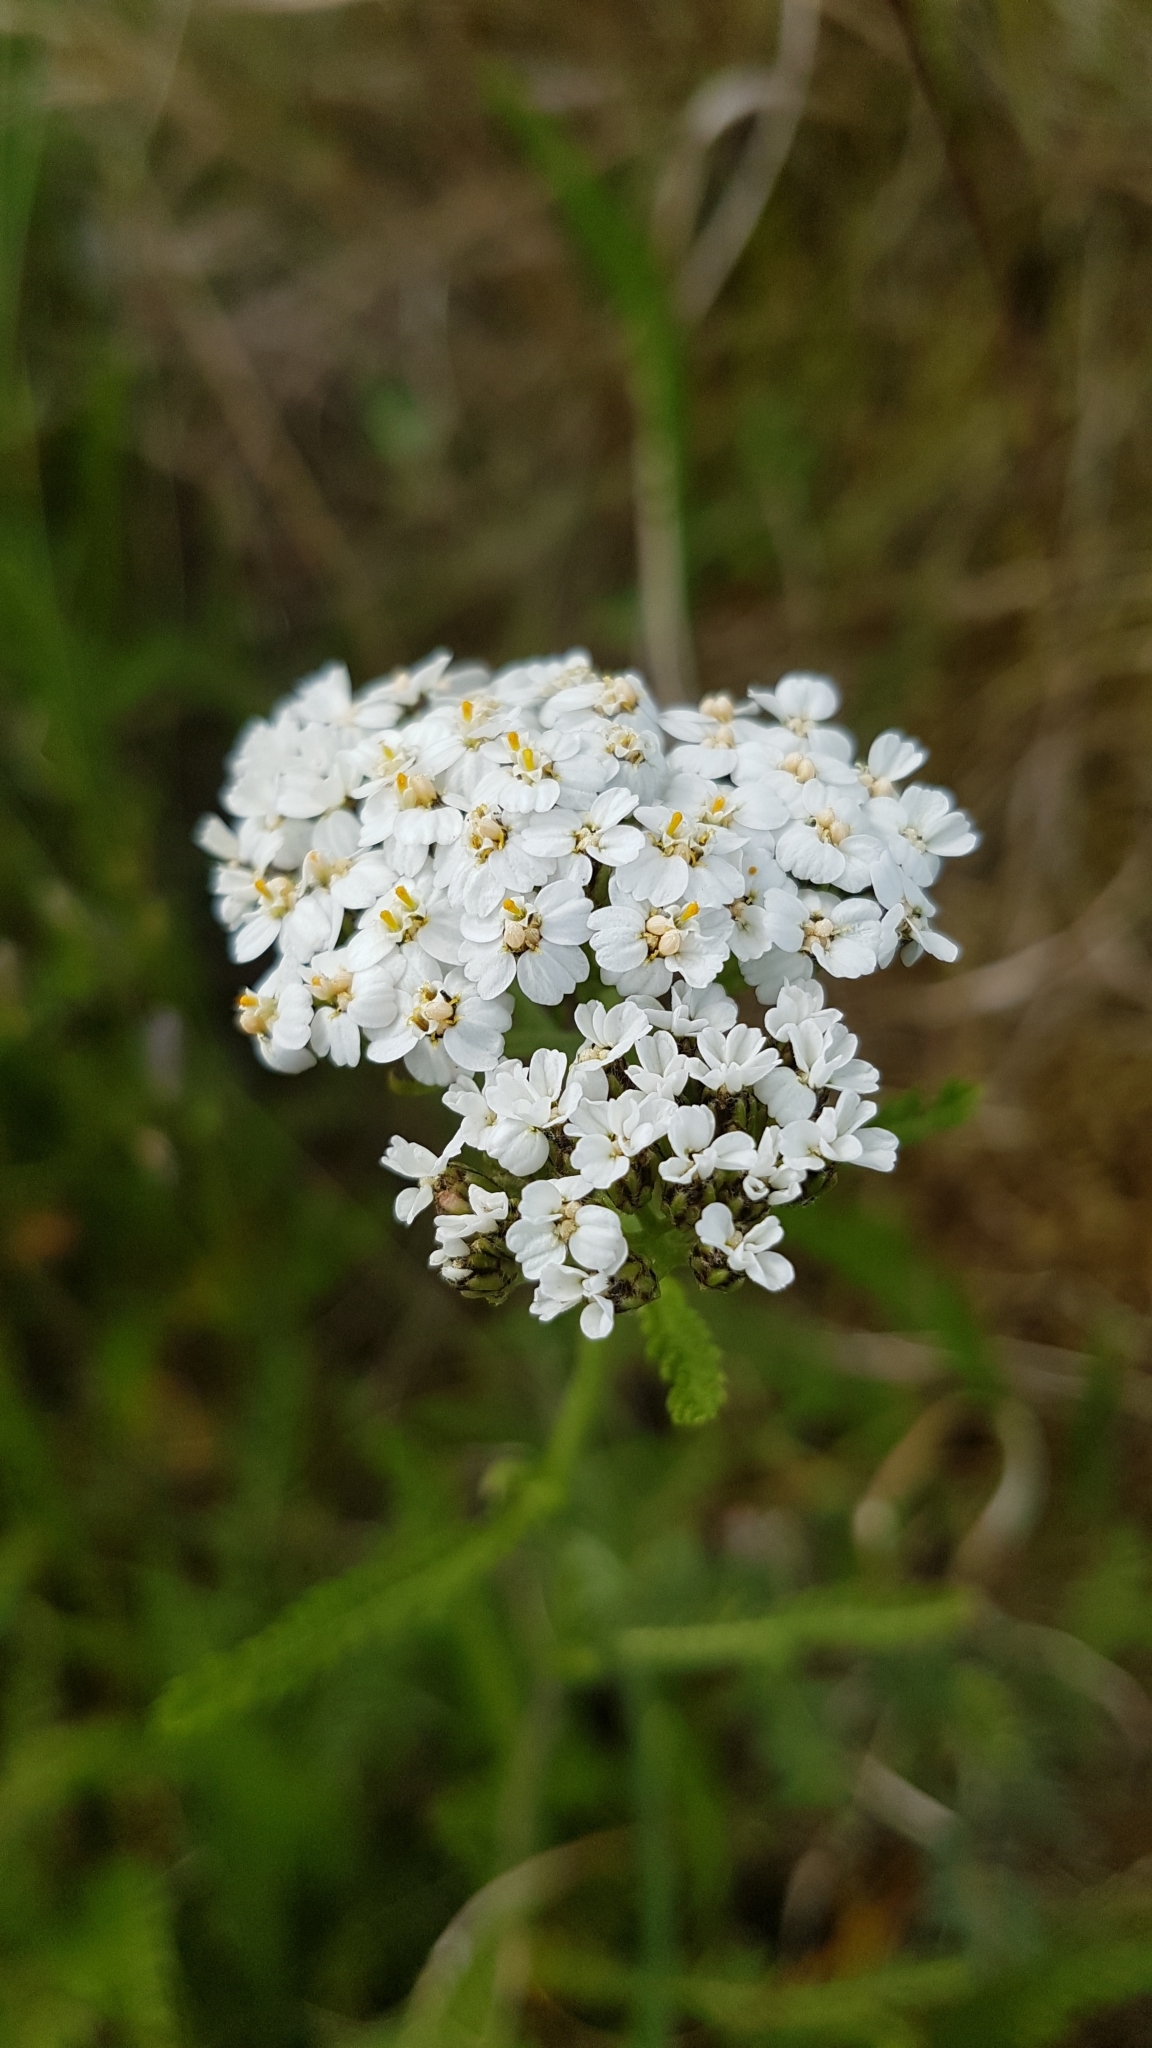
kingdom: Plantae
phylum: Tracheophyta
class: Magnoliopsida
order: Asterales
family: Asteraceae
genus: Achillea
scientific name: Achillea millefolium
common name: Yarrow
